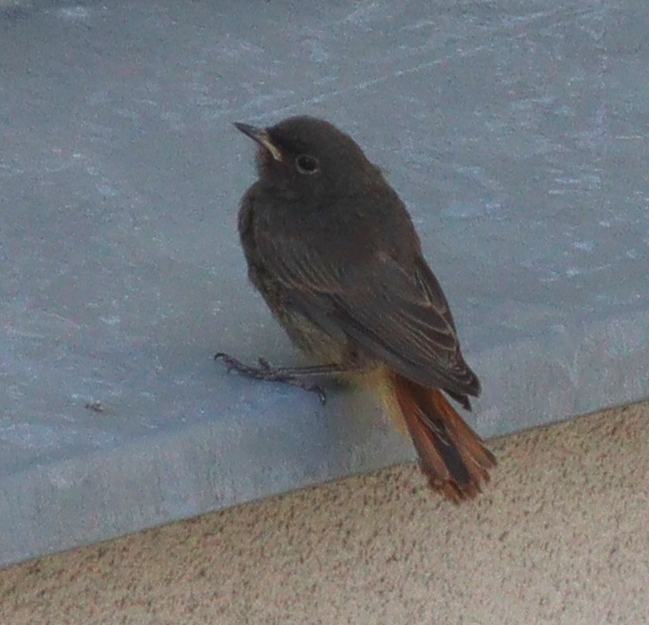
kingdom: Animalia
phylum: Chordata
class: Aves
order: Passeriformes
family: Muscicapidae
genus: Phoenicurus
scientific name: Phoenicurus ochruros
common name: Black redstart
